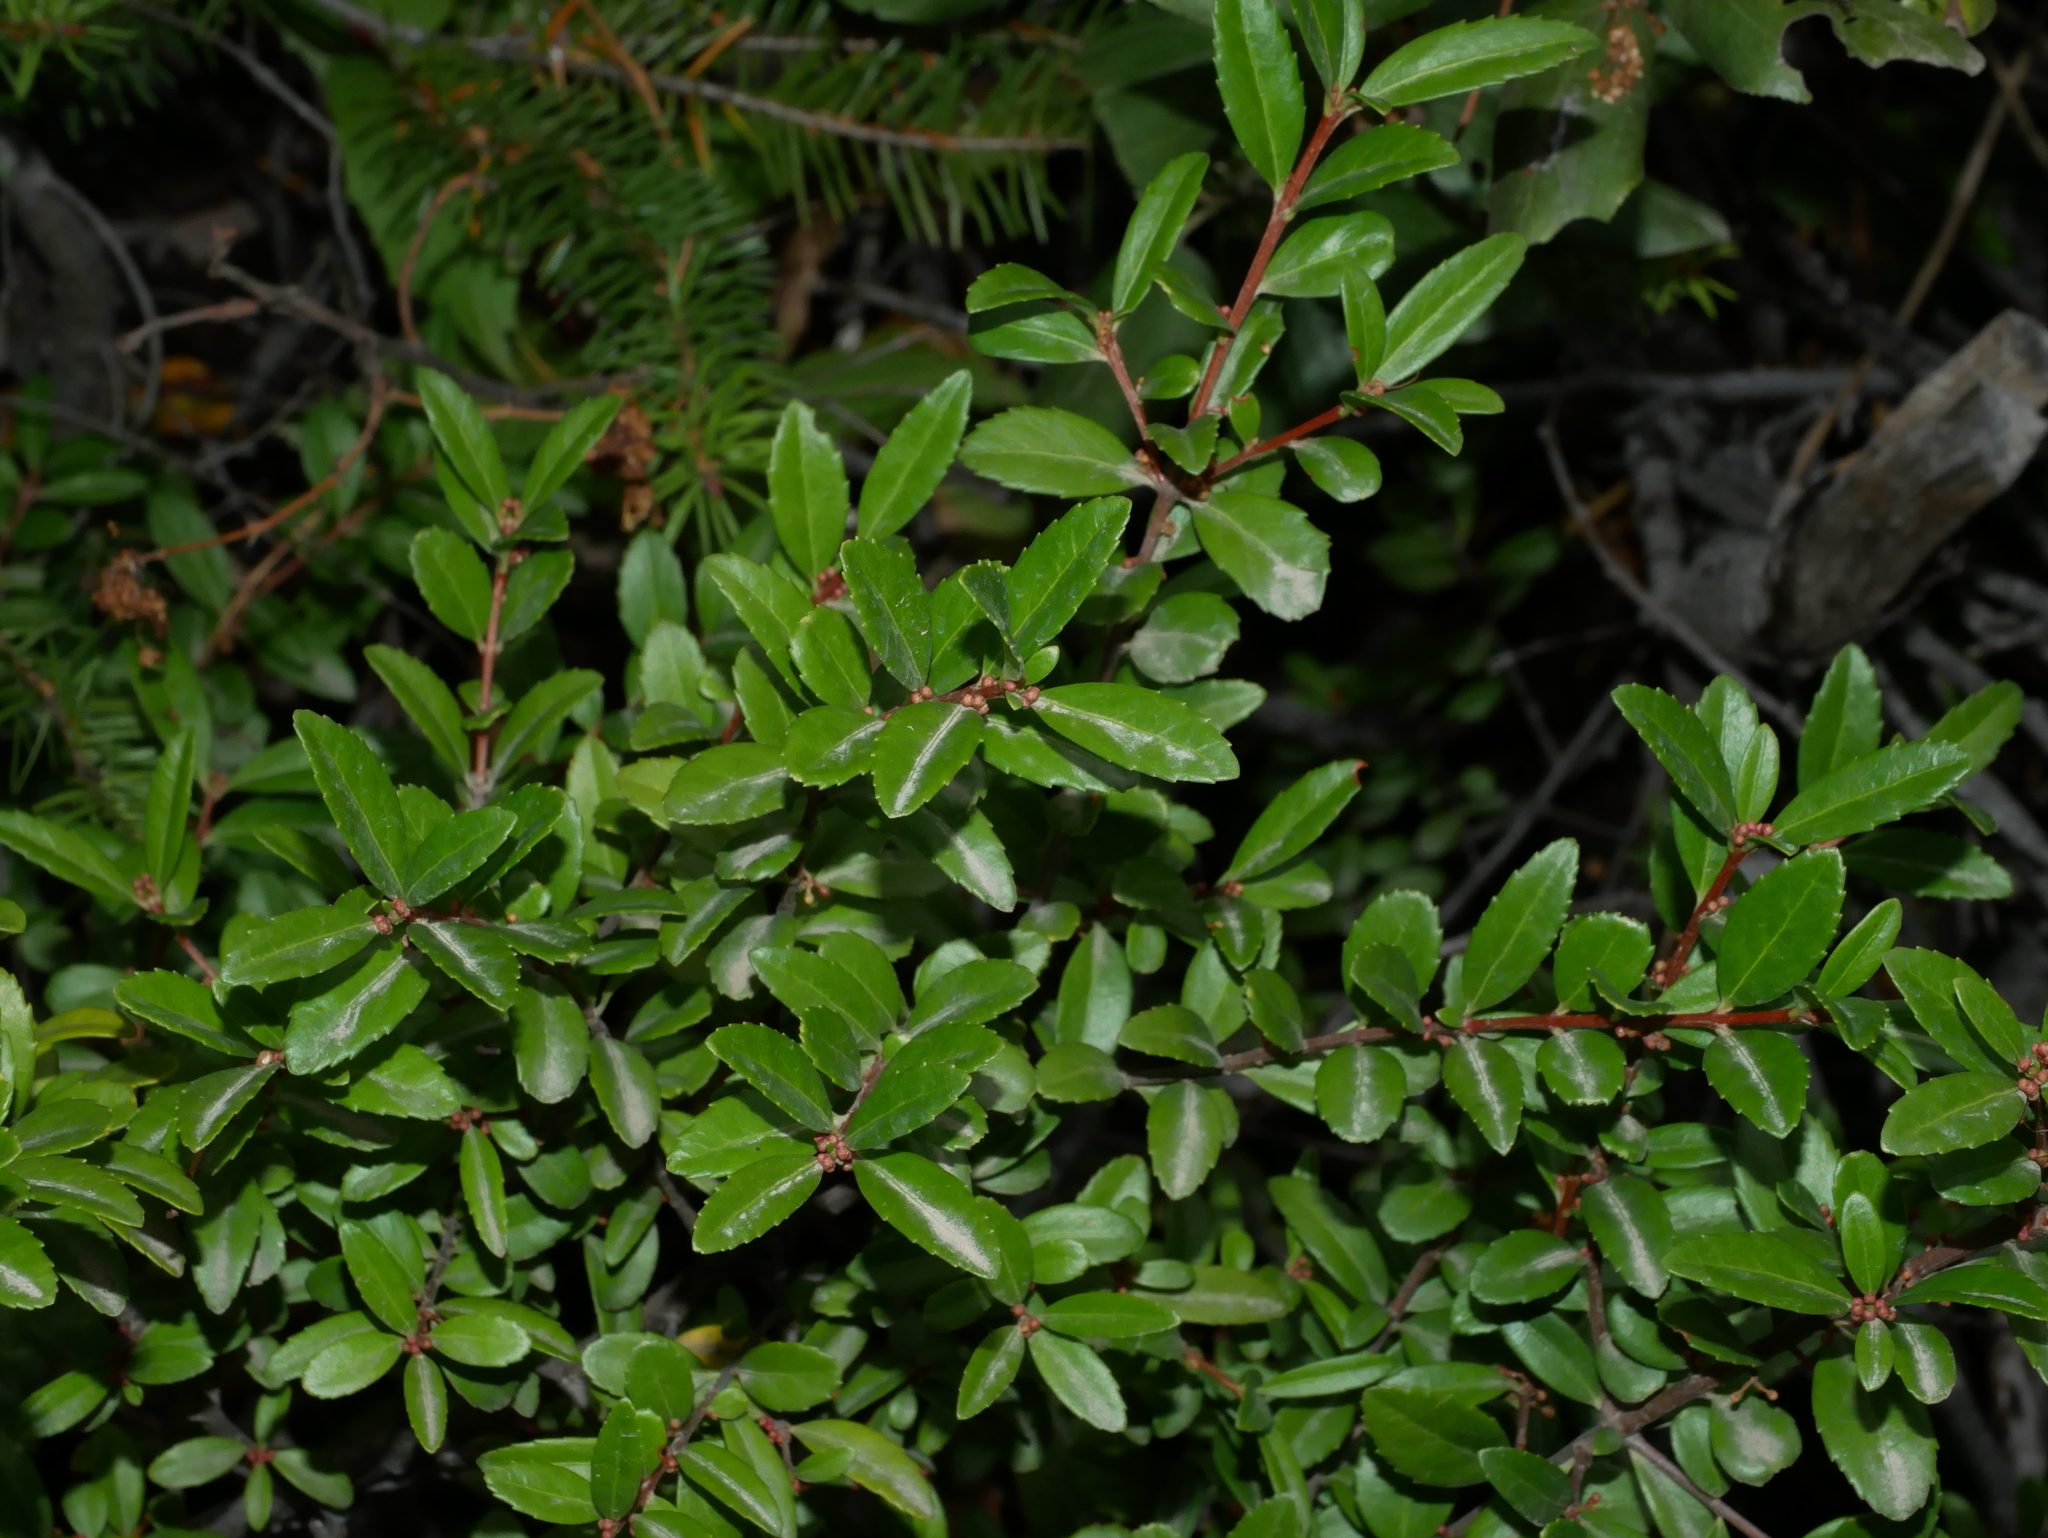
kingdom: Plantae
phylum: Tracheophyta
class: Magnoliopsida
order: Celastrales
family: Celastraceae
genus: Paxistima
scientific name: Paxistima myrsinites
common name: Mountain-lover
